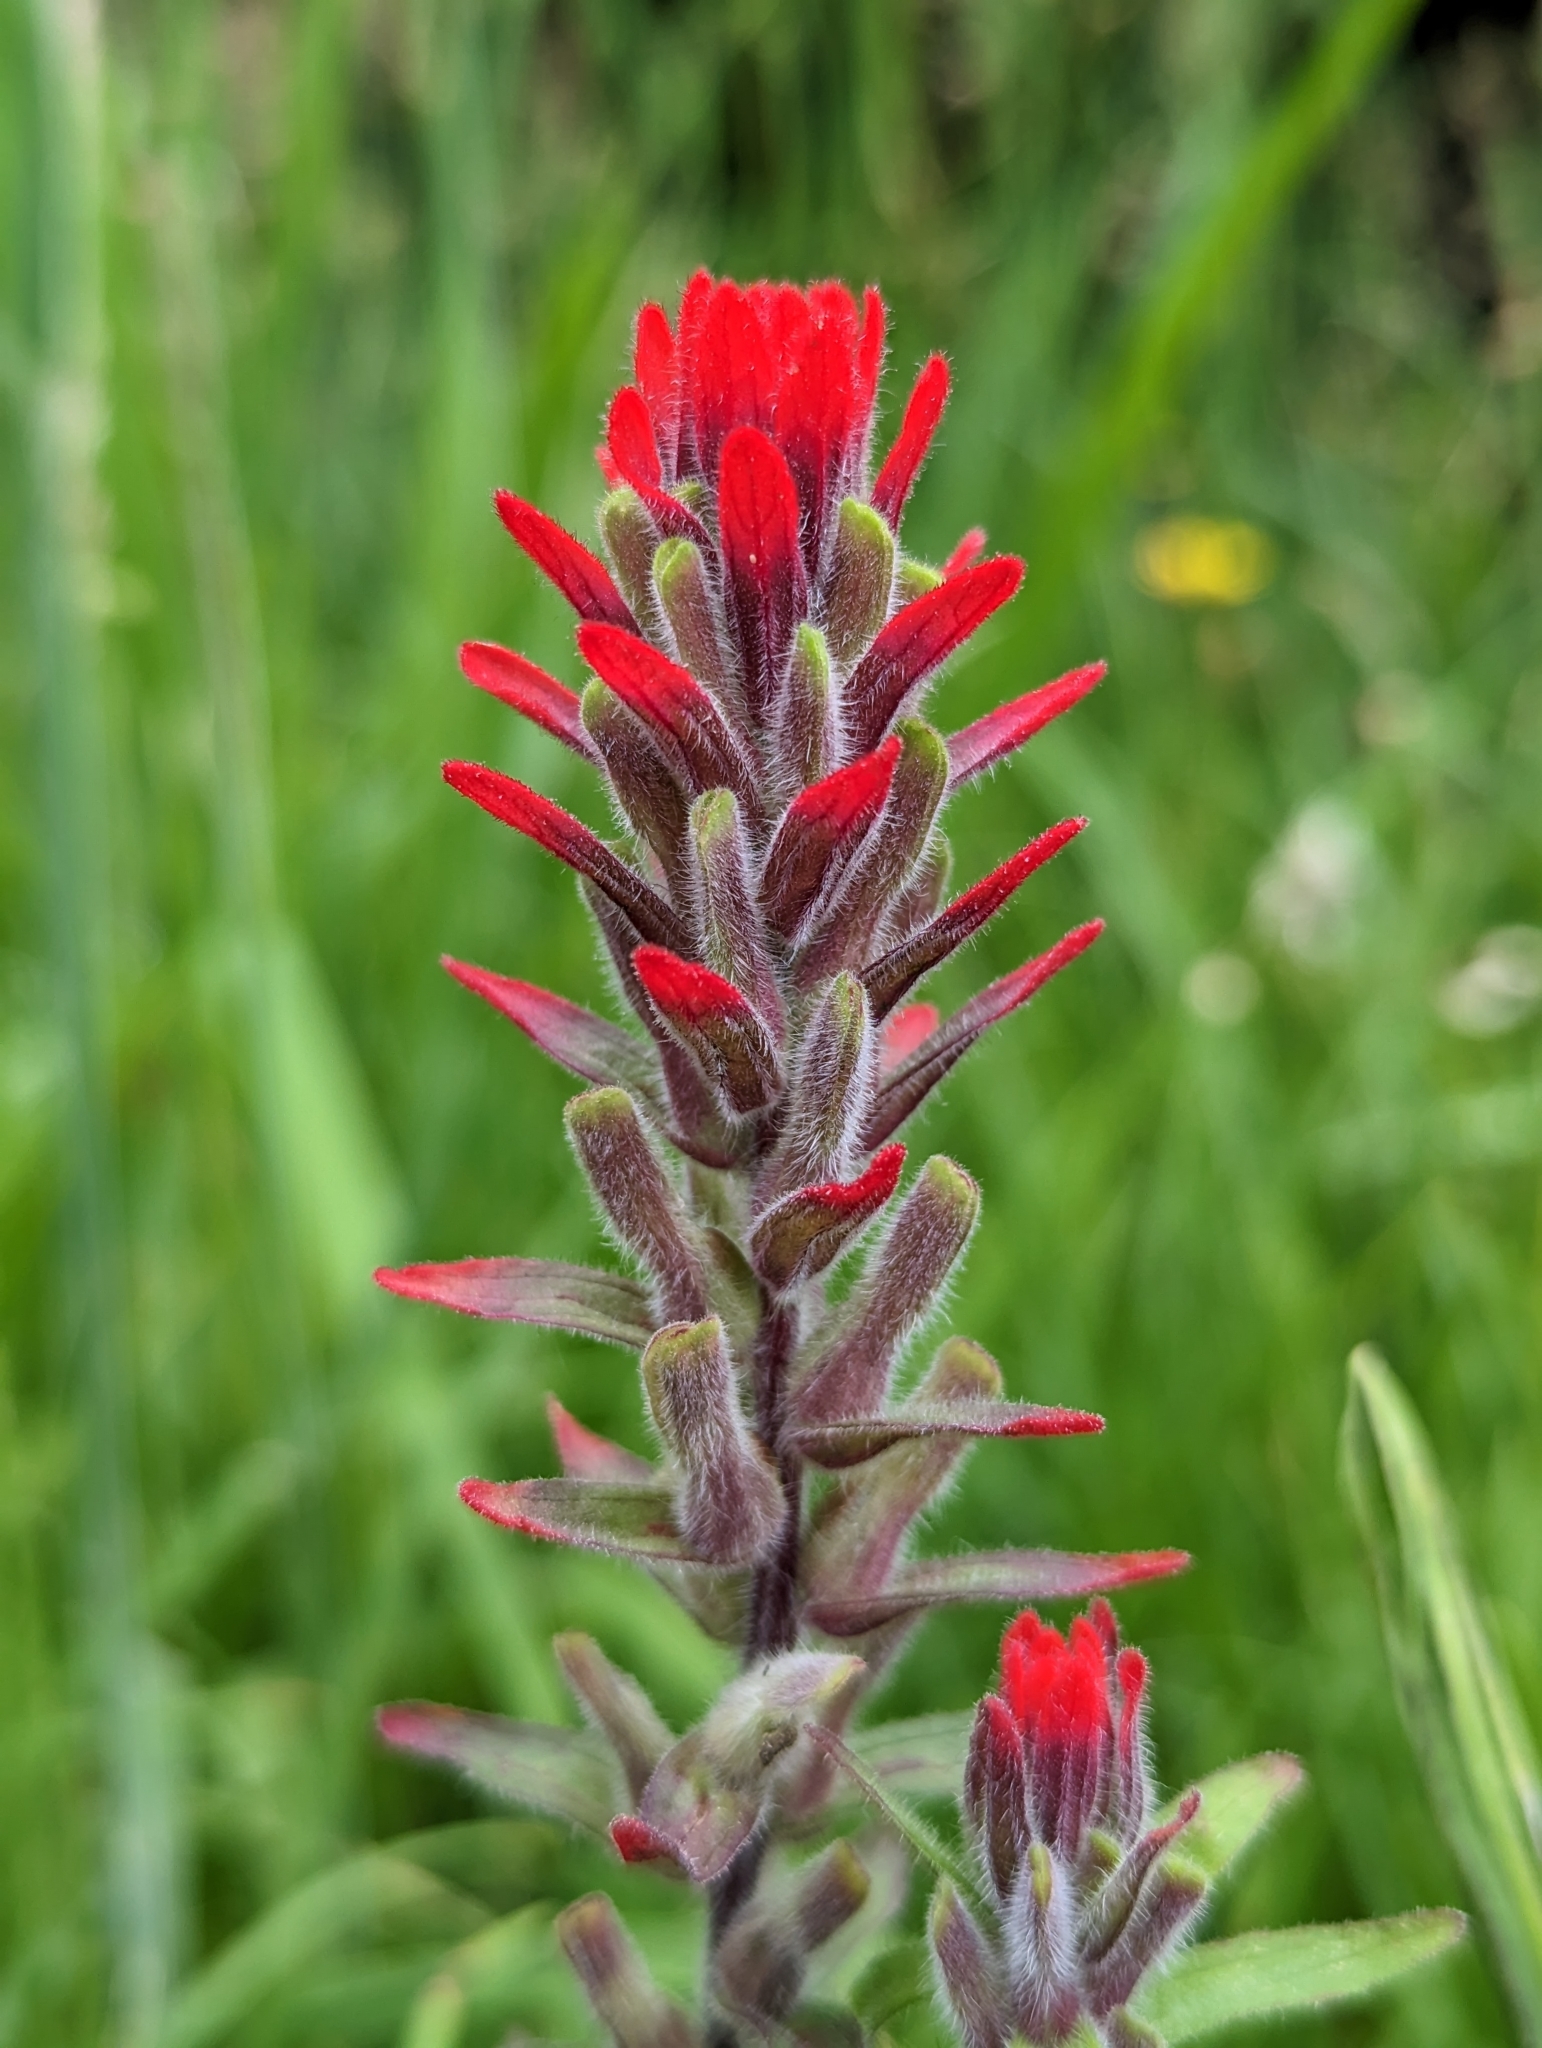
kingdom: Plantae
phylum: Tracheophyta
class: Magnoliopsida
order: Lamiales
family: Orobanchaceae
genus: Castilleja
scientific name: Castilleja arvensis
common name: Indian paintbrush
